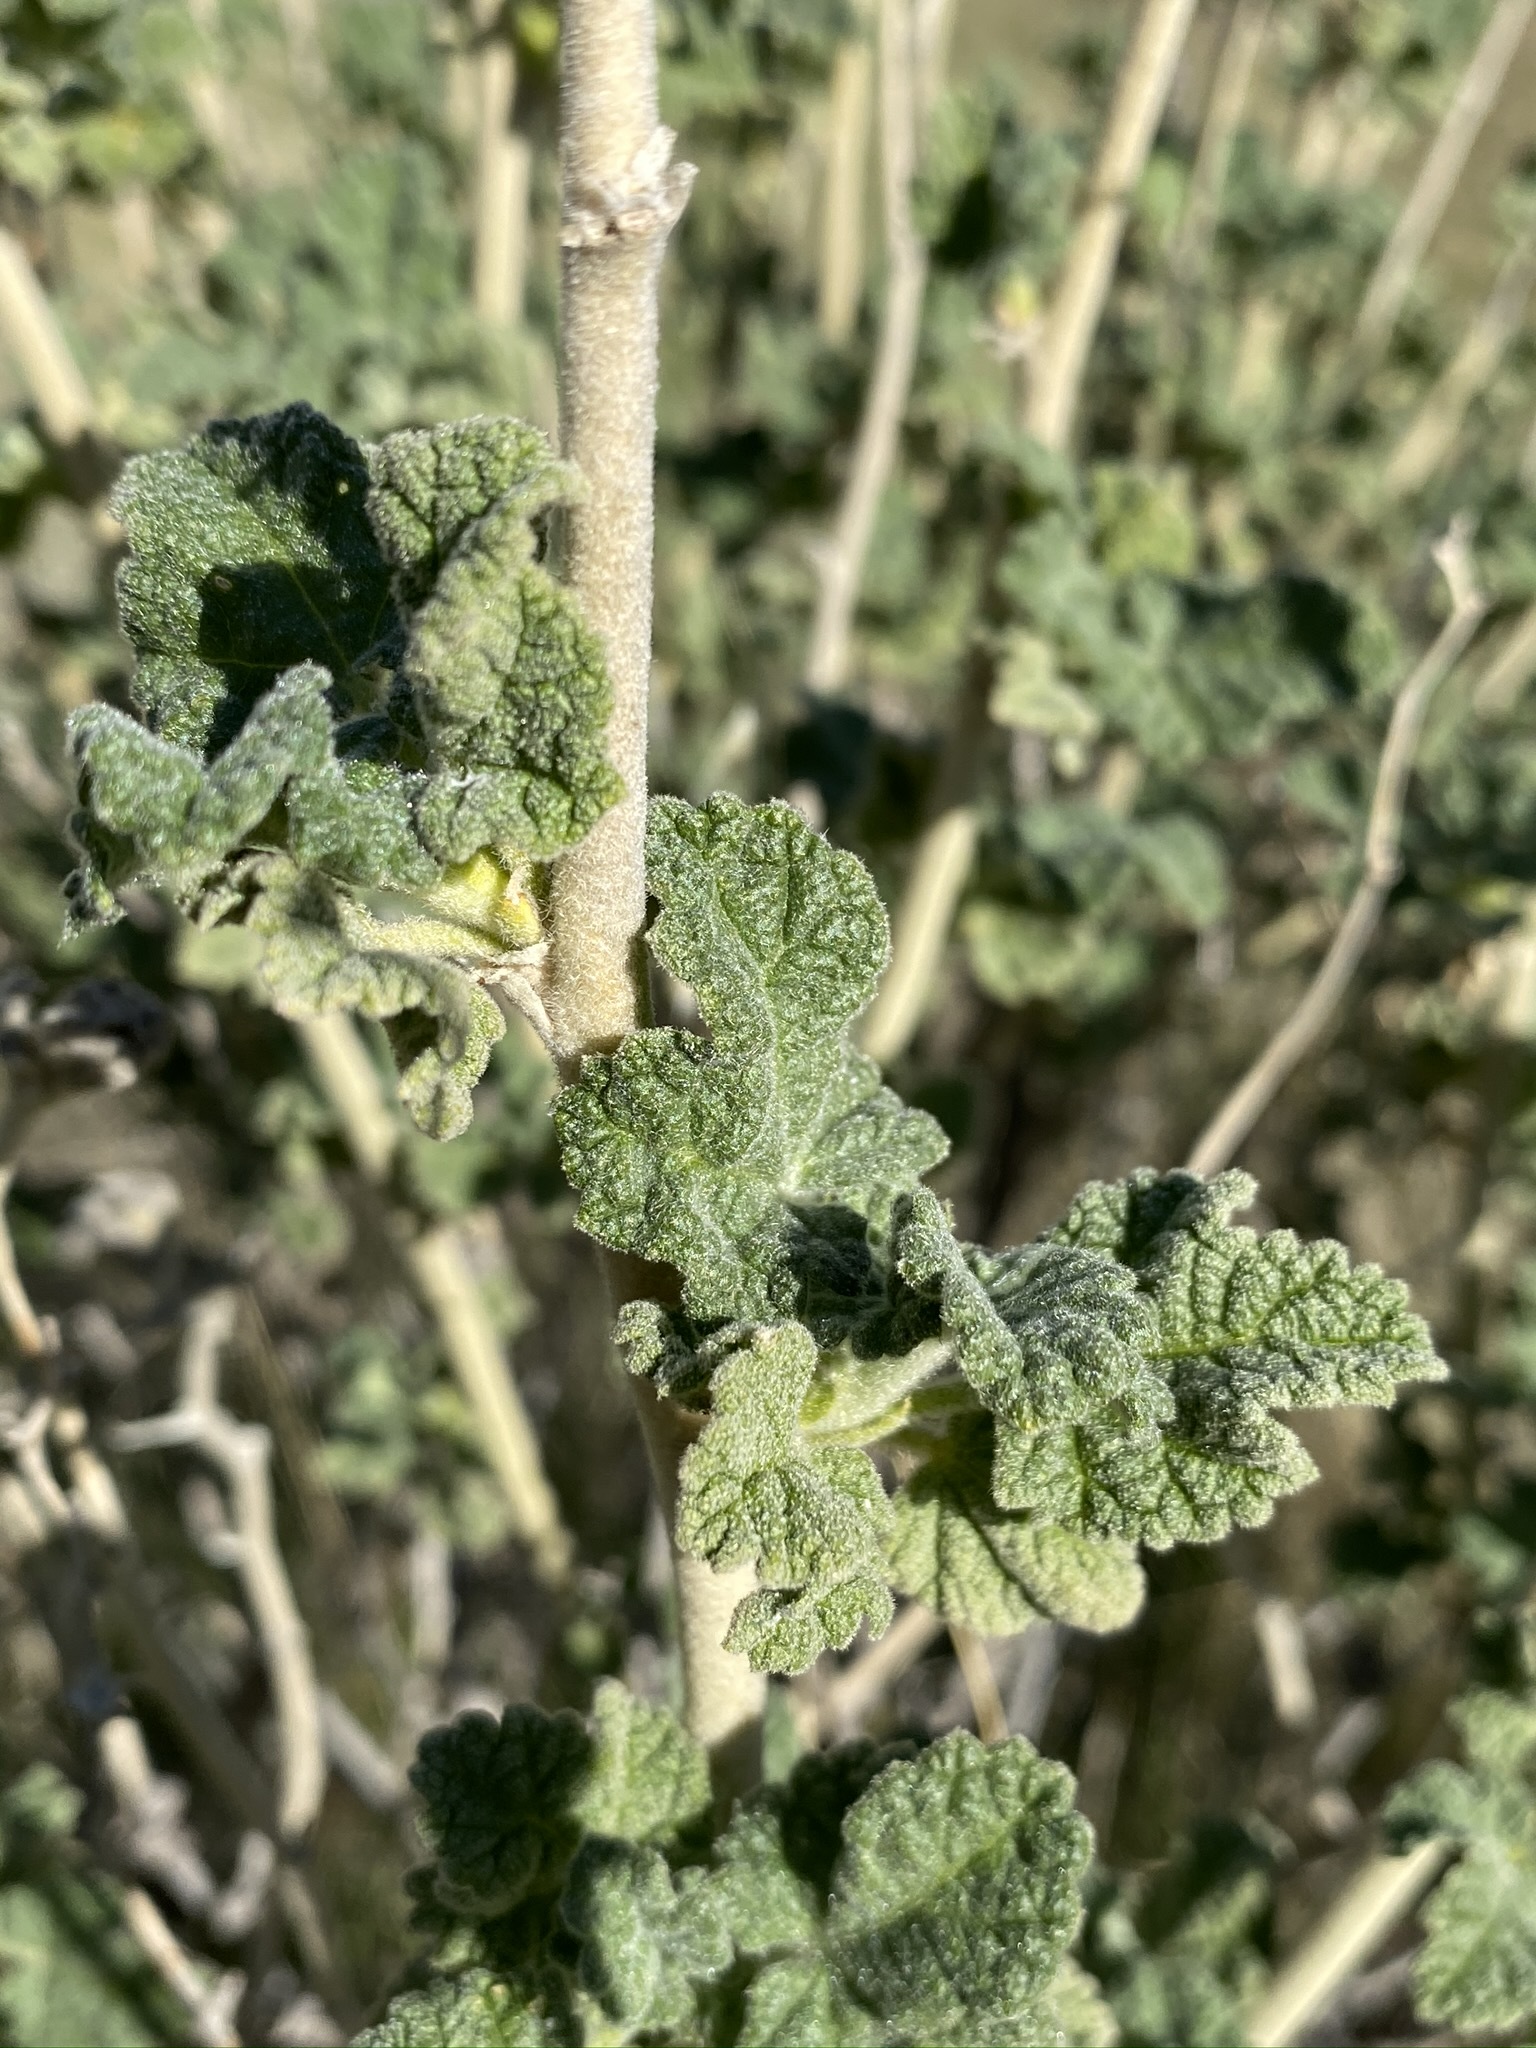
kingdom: Plantae
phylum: Tracheophyta
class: Magnoliopsida
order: Malvales
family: Malvaceae
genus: Malacothamnus
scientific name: Malacothamnus aboriginum
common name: Indian valley bush-mallow
